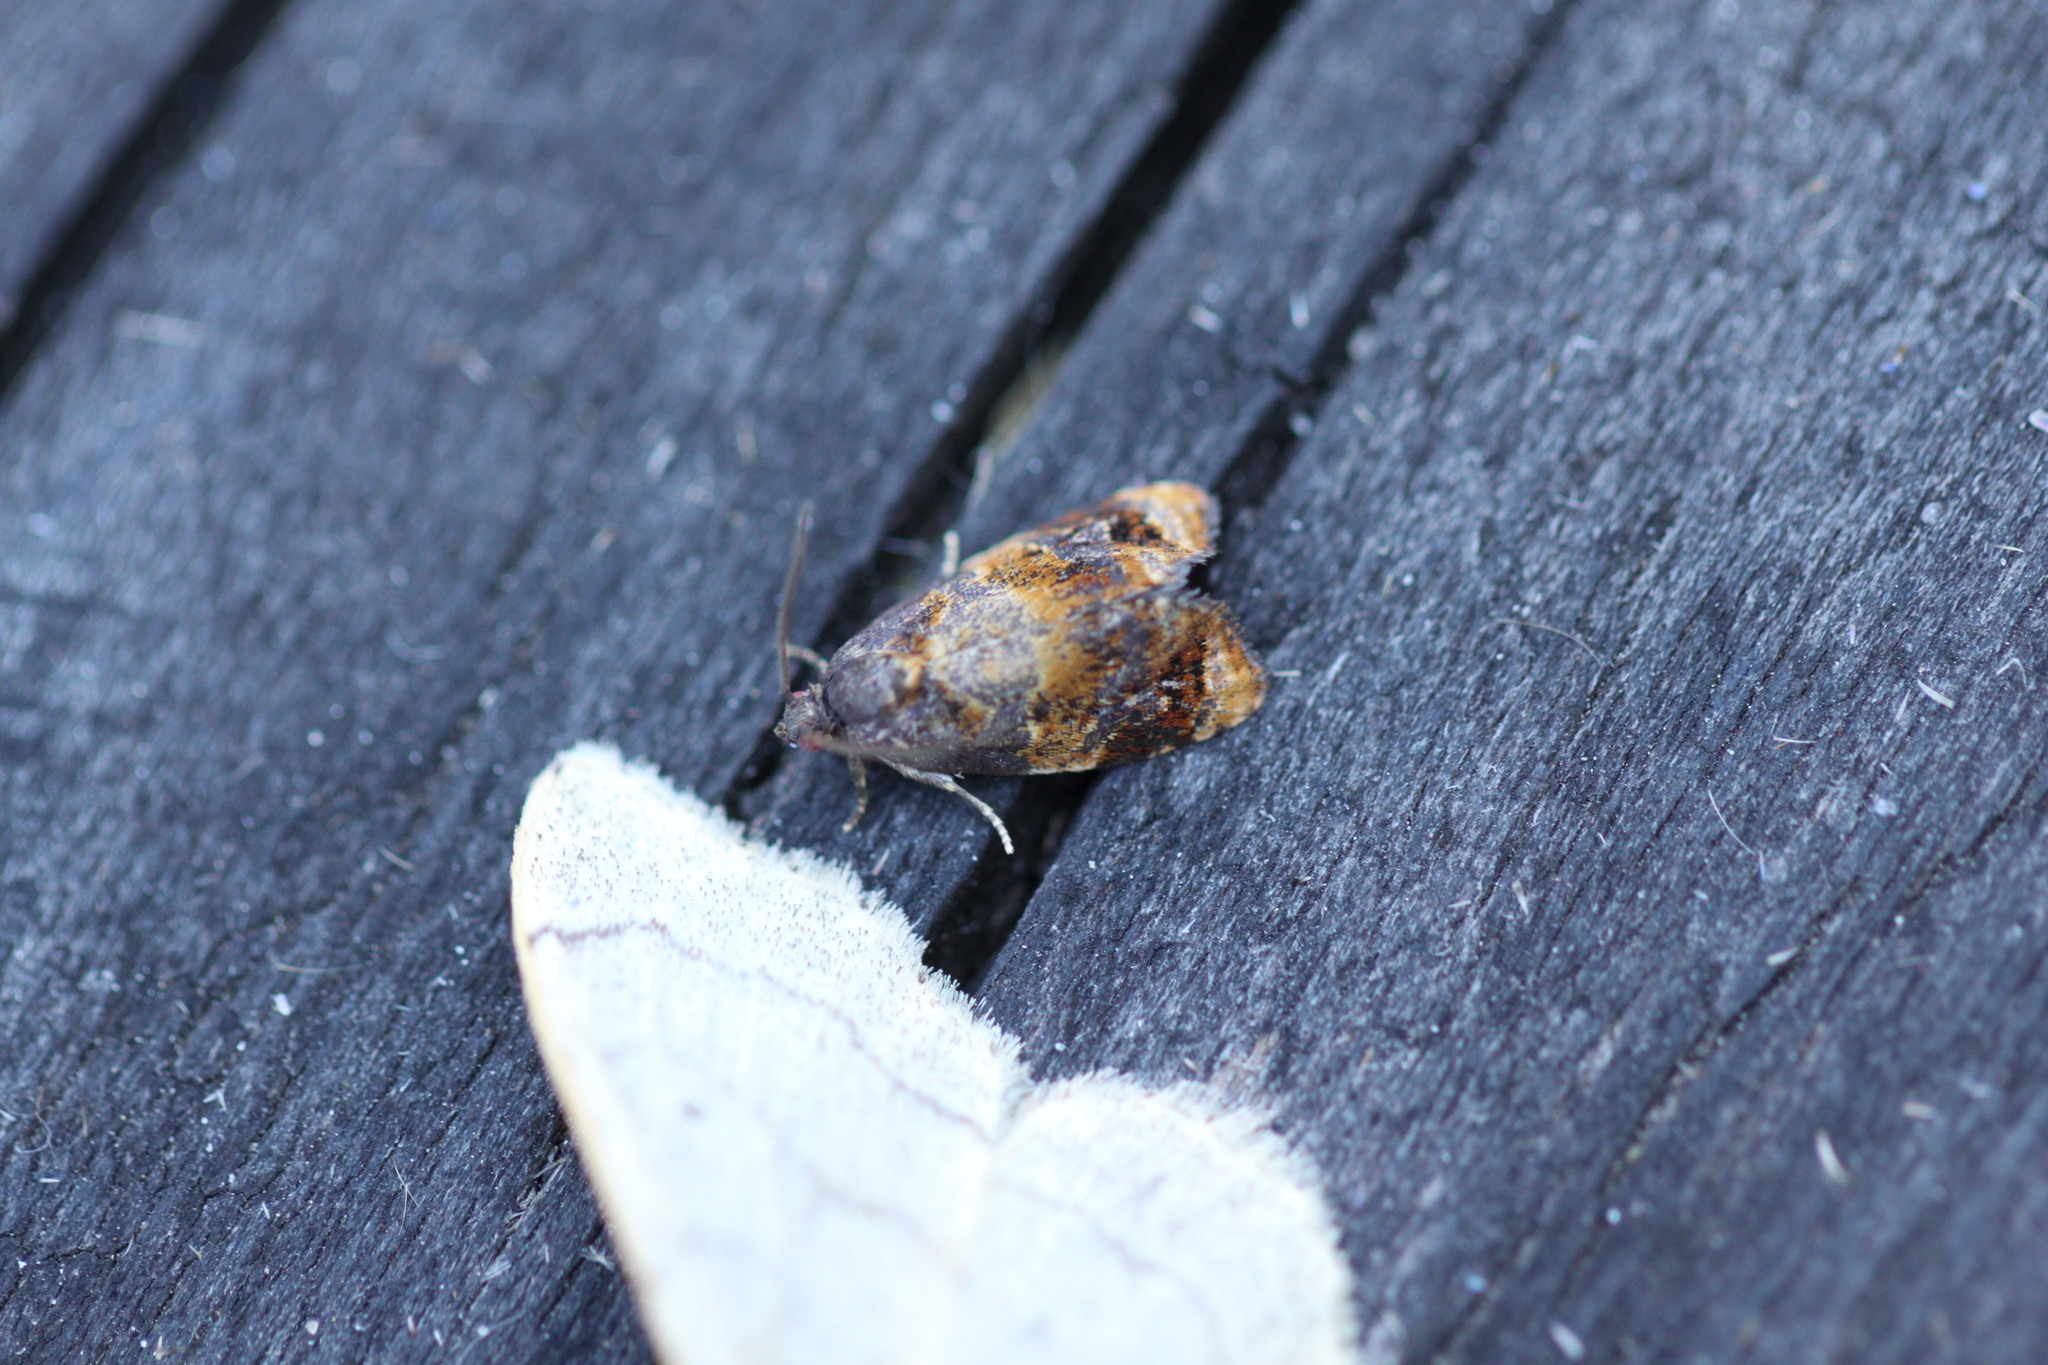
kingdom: Animalia
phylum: Arthropoda
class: Insecta
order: Lepidoptera
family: Tortricidae
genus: Ditula
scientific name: Ditula angustiorana
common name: Red-barred tortrix
